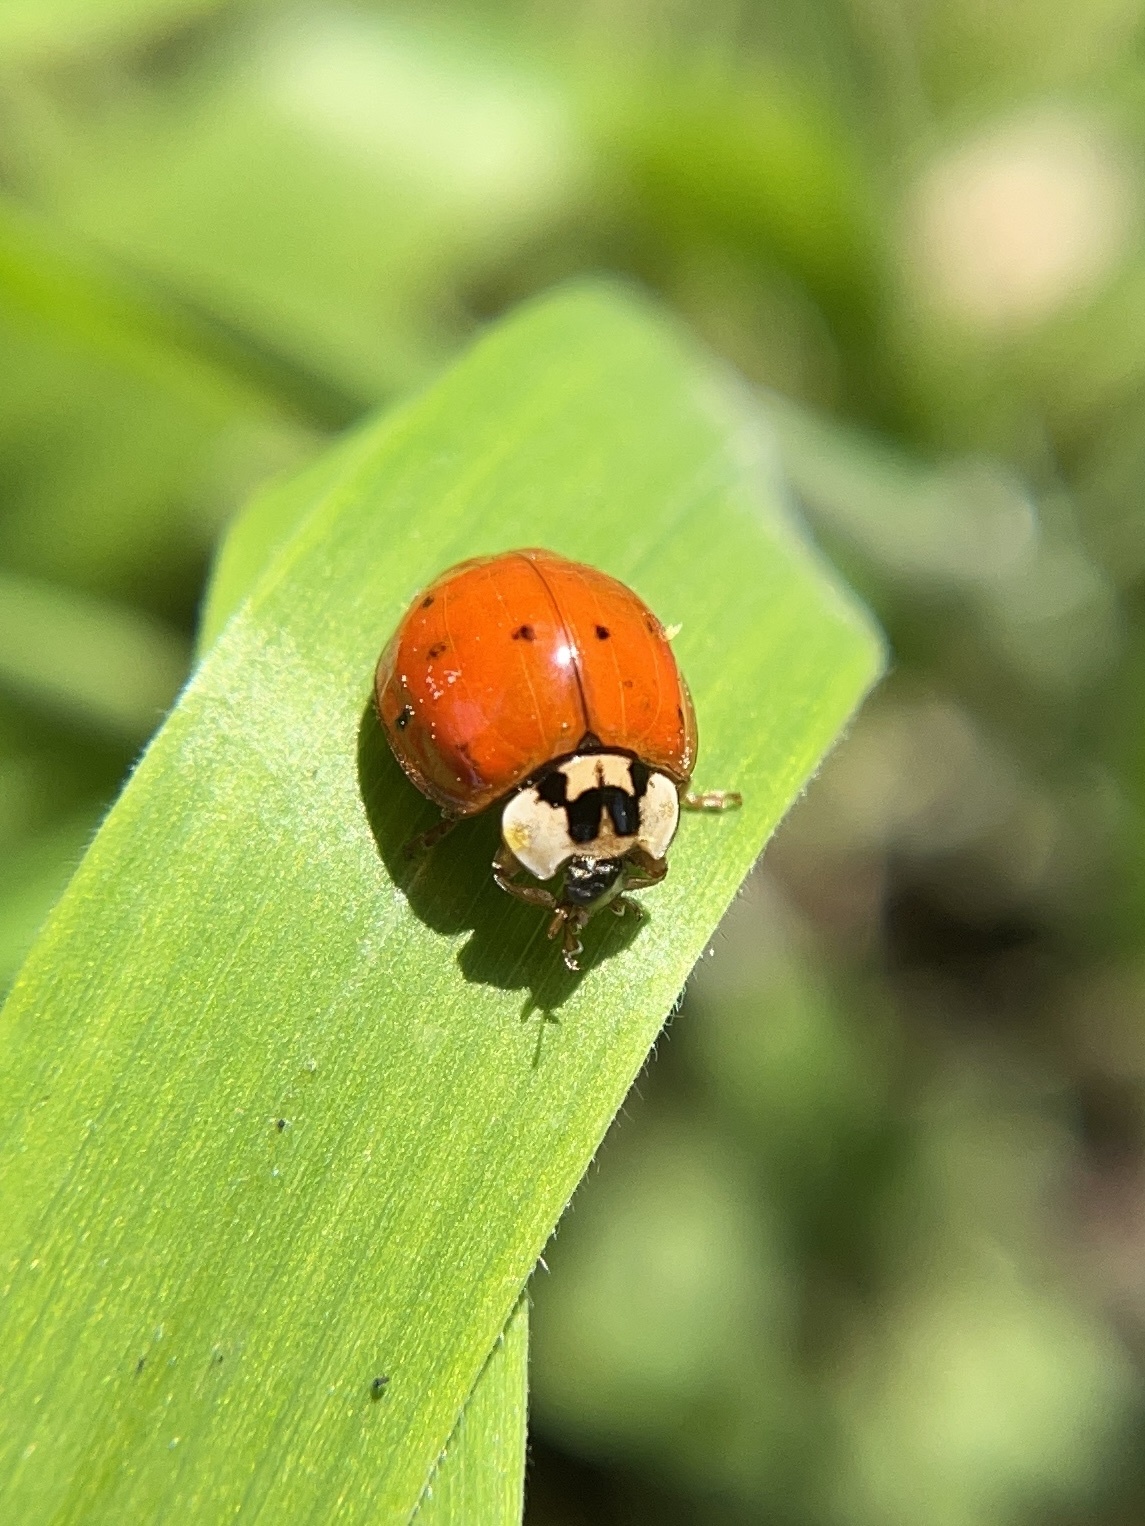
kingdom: Animalia
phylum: Arthropoda
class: Insecta
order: Coleoptera
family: Coccinellidae
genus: Harmonia
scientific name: Harmonia axyridis
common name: Harlequin ladybird
